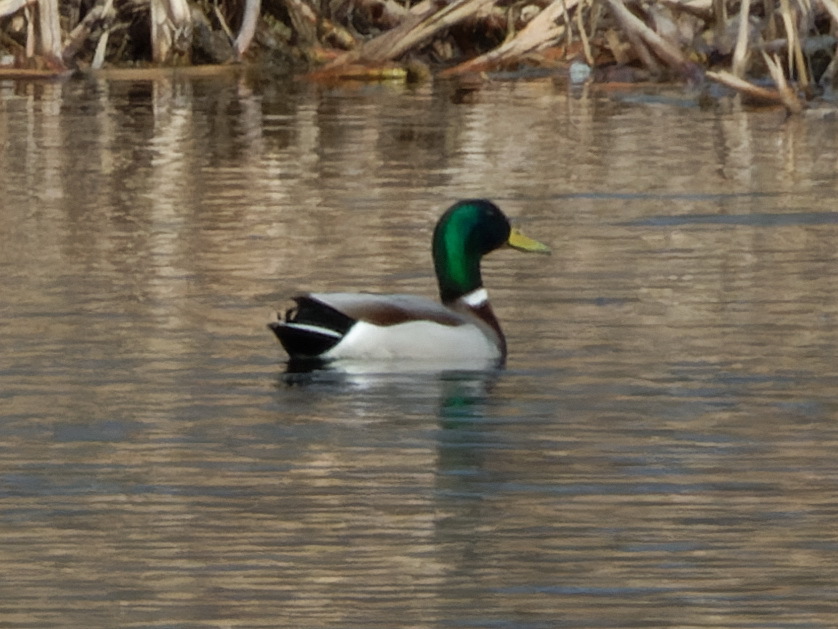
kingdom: Animalia
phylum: Chordata
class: Aves
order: Anseriformes
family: Anatidae
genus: Anas
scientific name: Anas platyrhynchos
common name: Mallard
